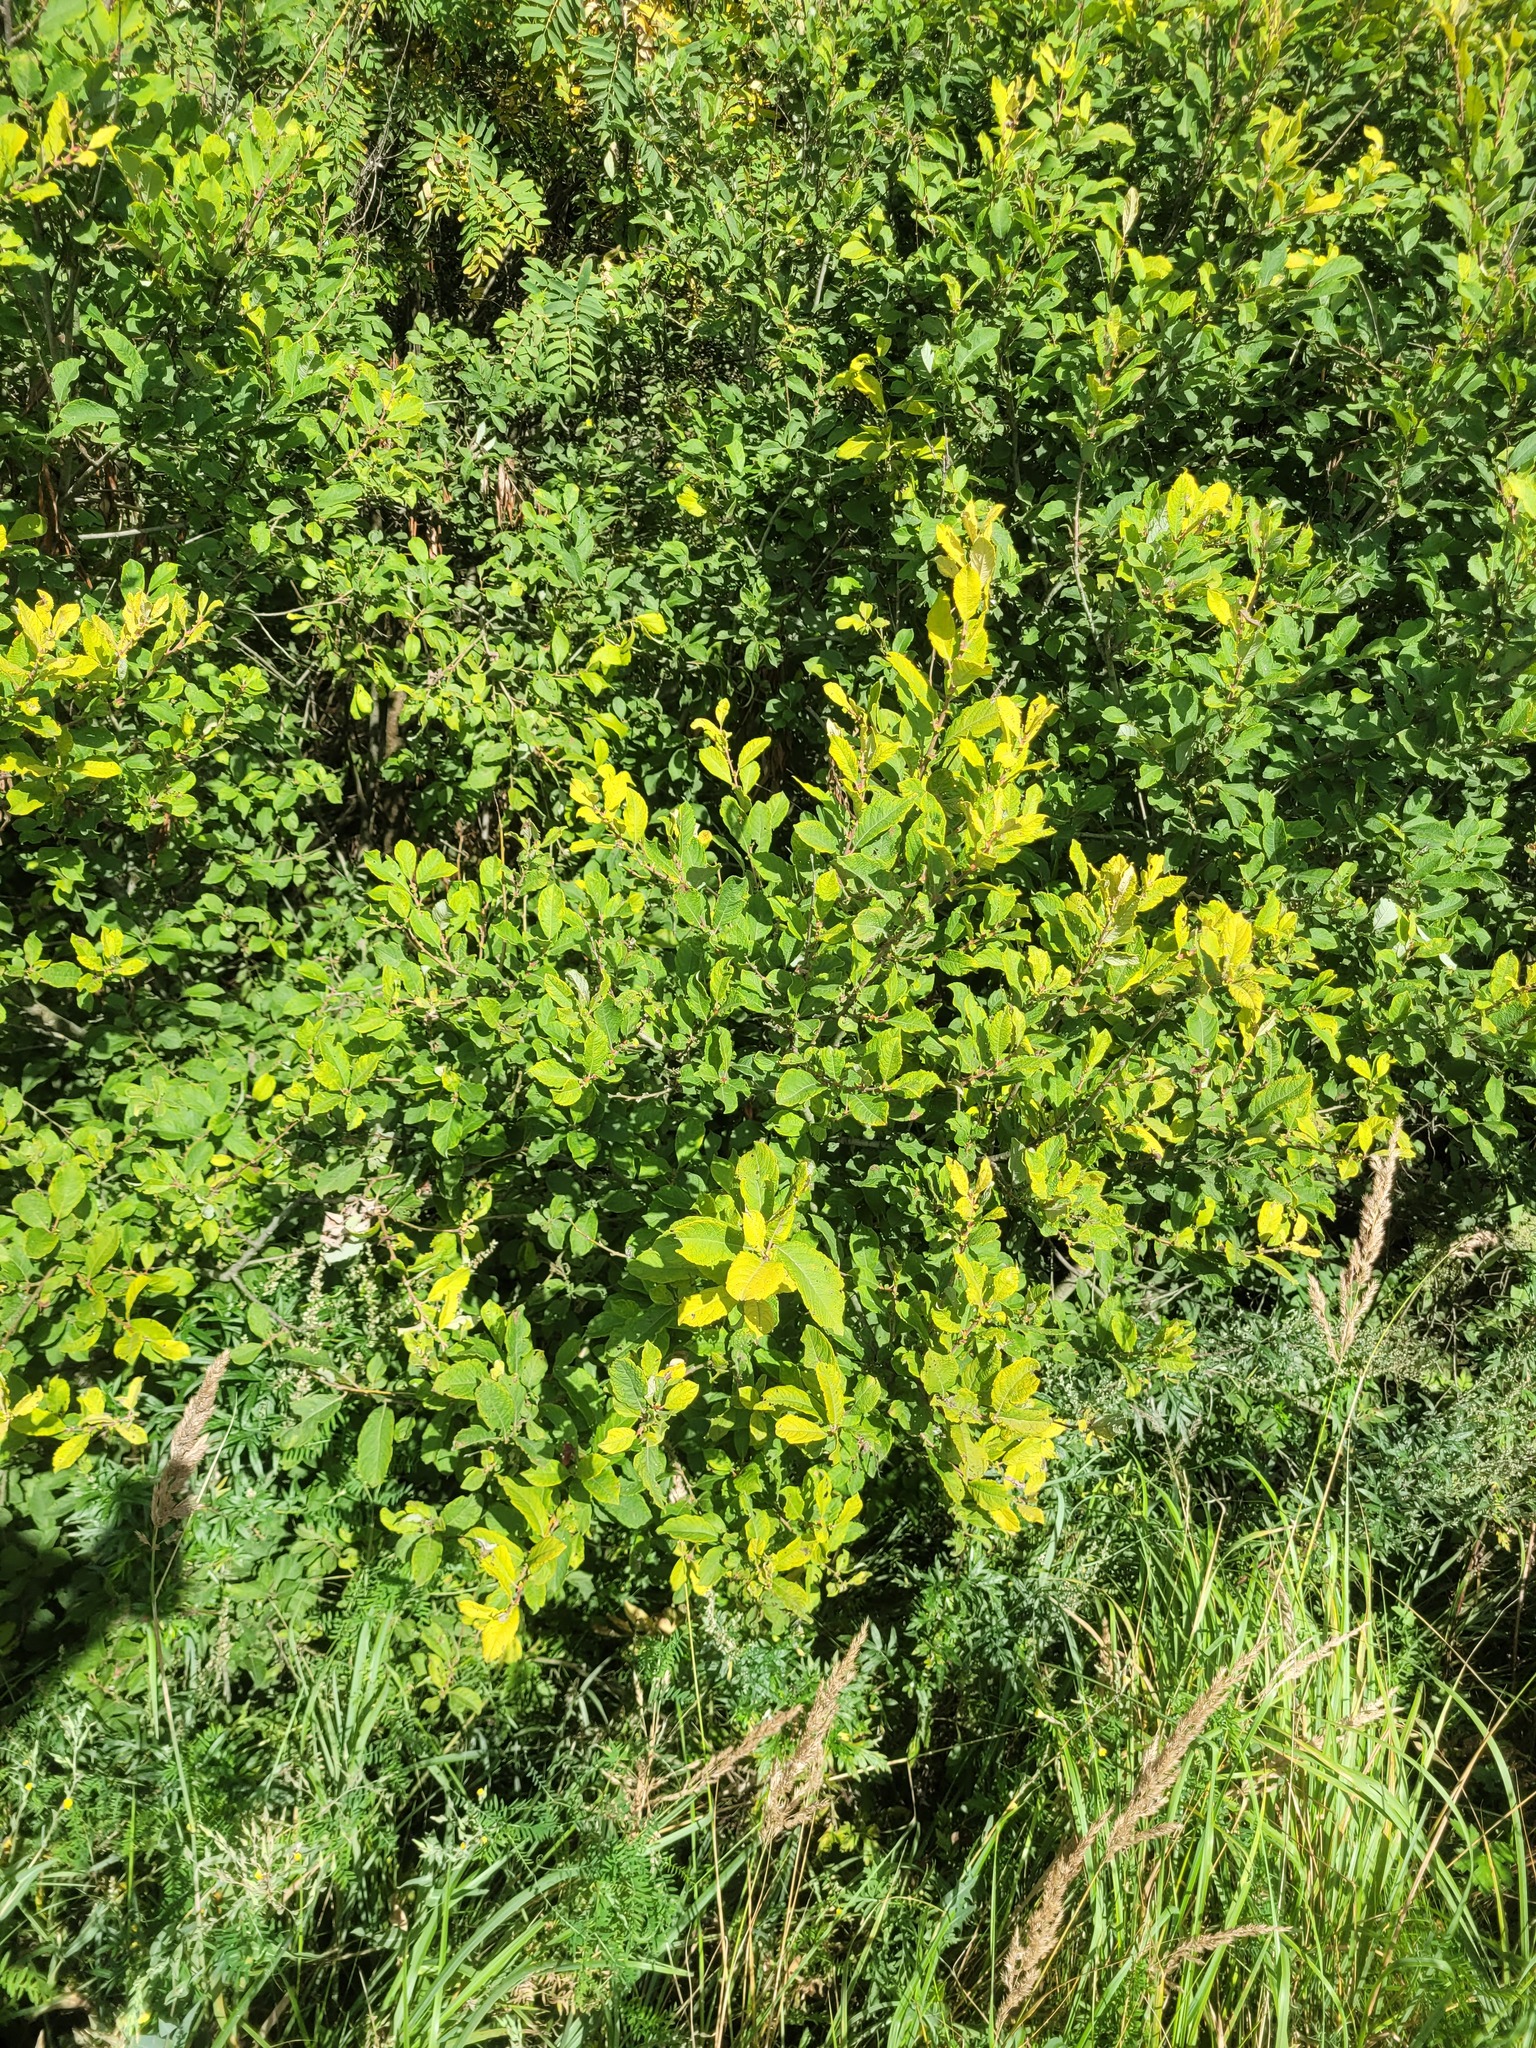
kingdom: Plantae
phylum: Tracheophyta
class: Magnoliopsida
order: Malpighiales
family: Salicaceae
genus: Salix
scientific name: Salix aurita
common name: Eared willow
